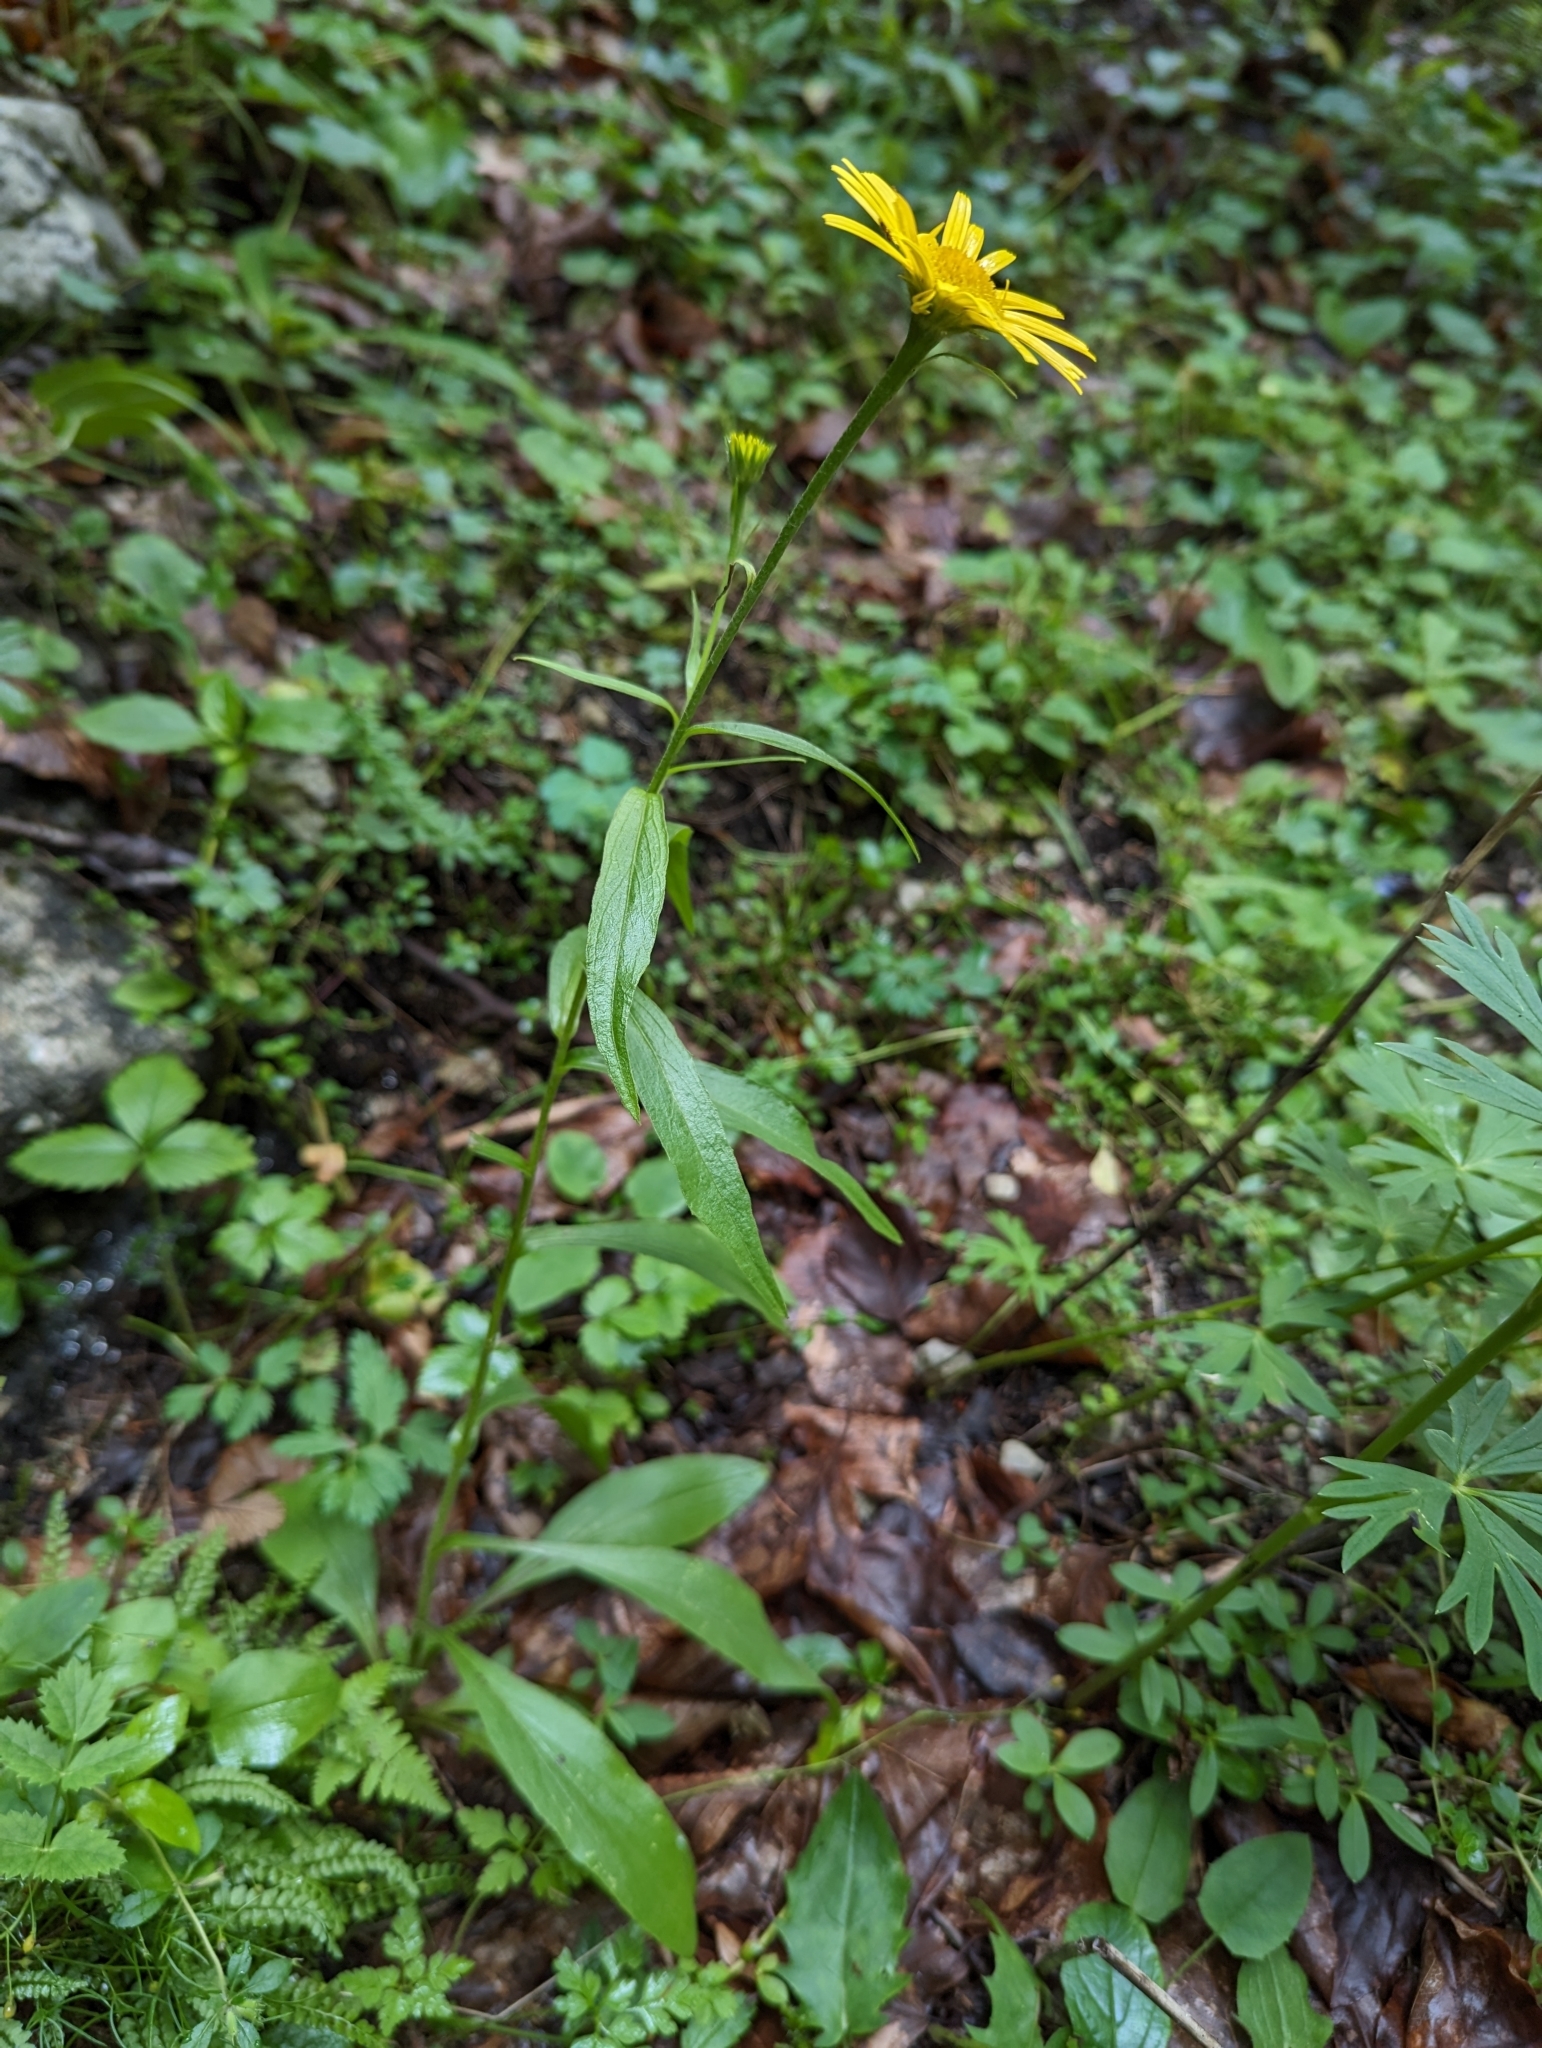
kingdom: Plantae
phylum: Tracheophyta
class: Magnoliopsida
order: Asterales
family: Asteraceae
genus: Buphthalmum
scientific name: Buphthalmum salicifolium
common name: Willow-leaved yellow-oxeye
